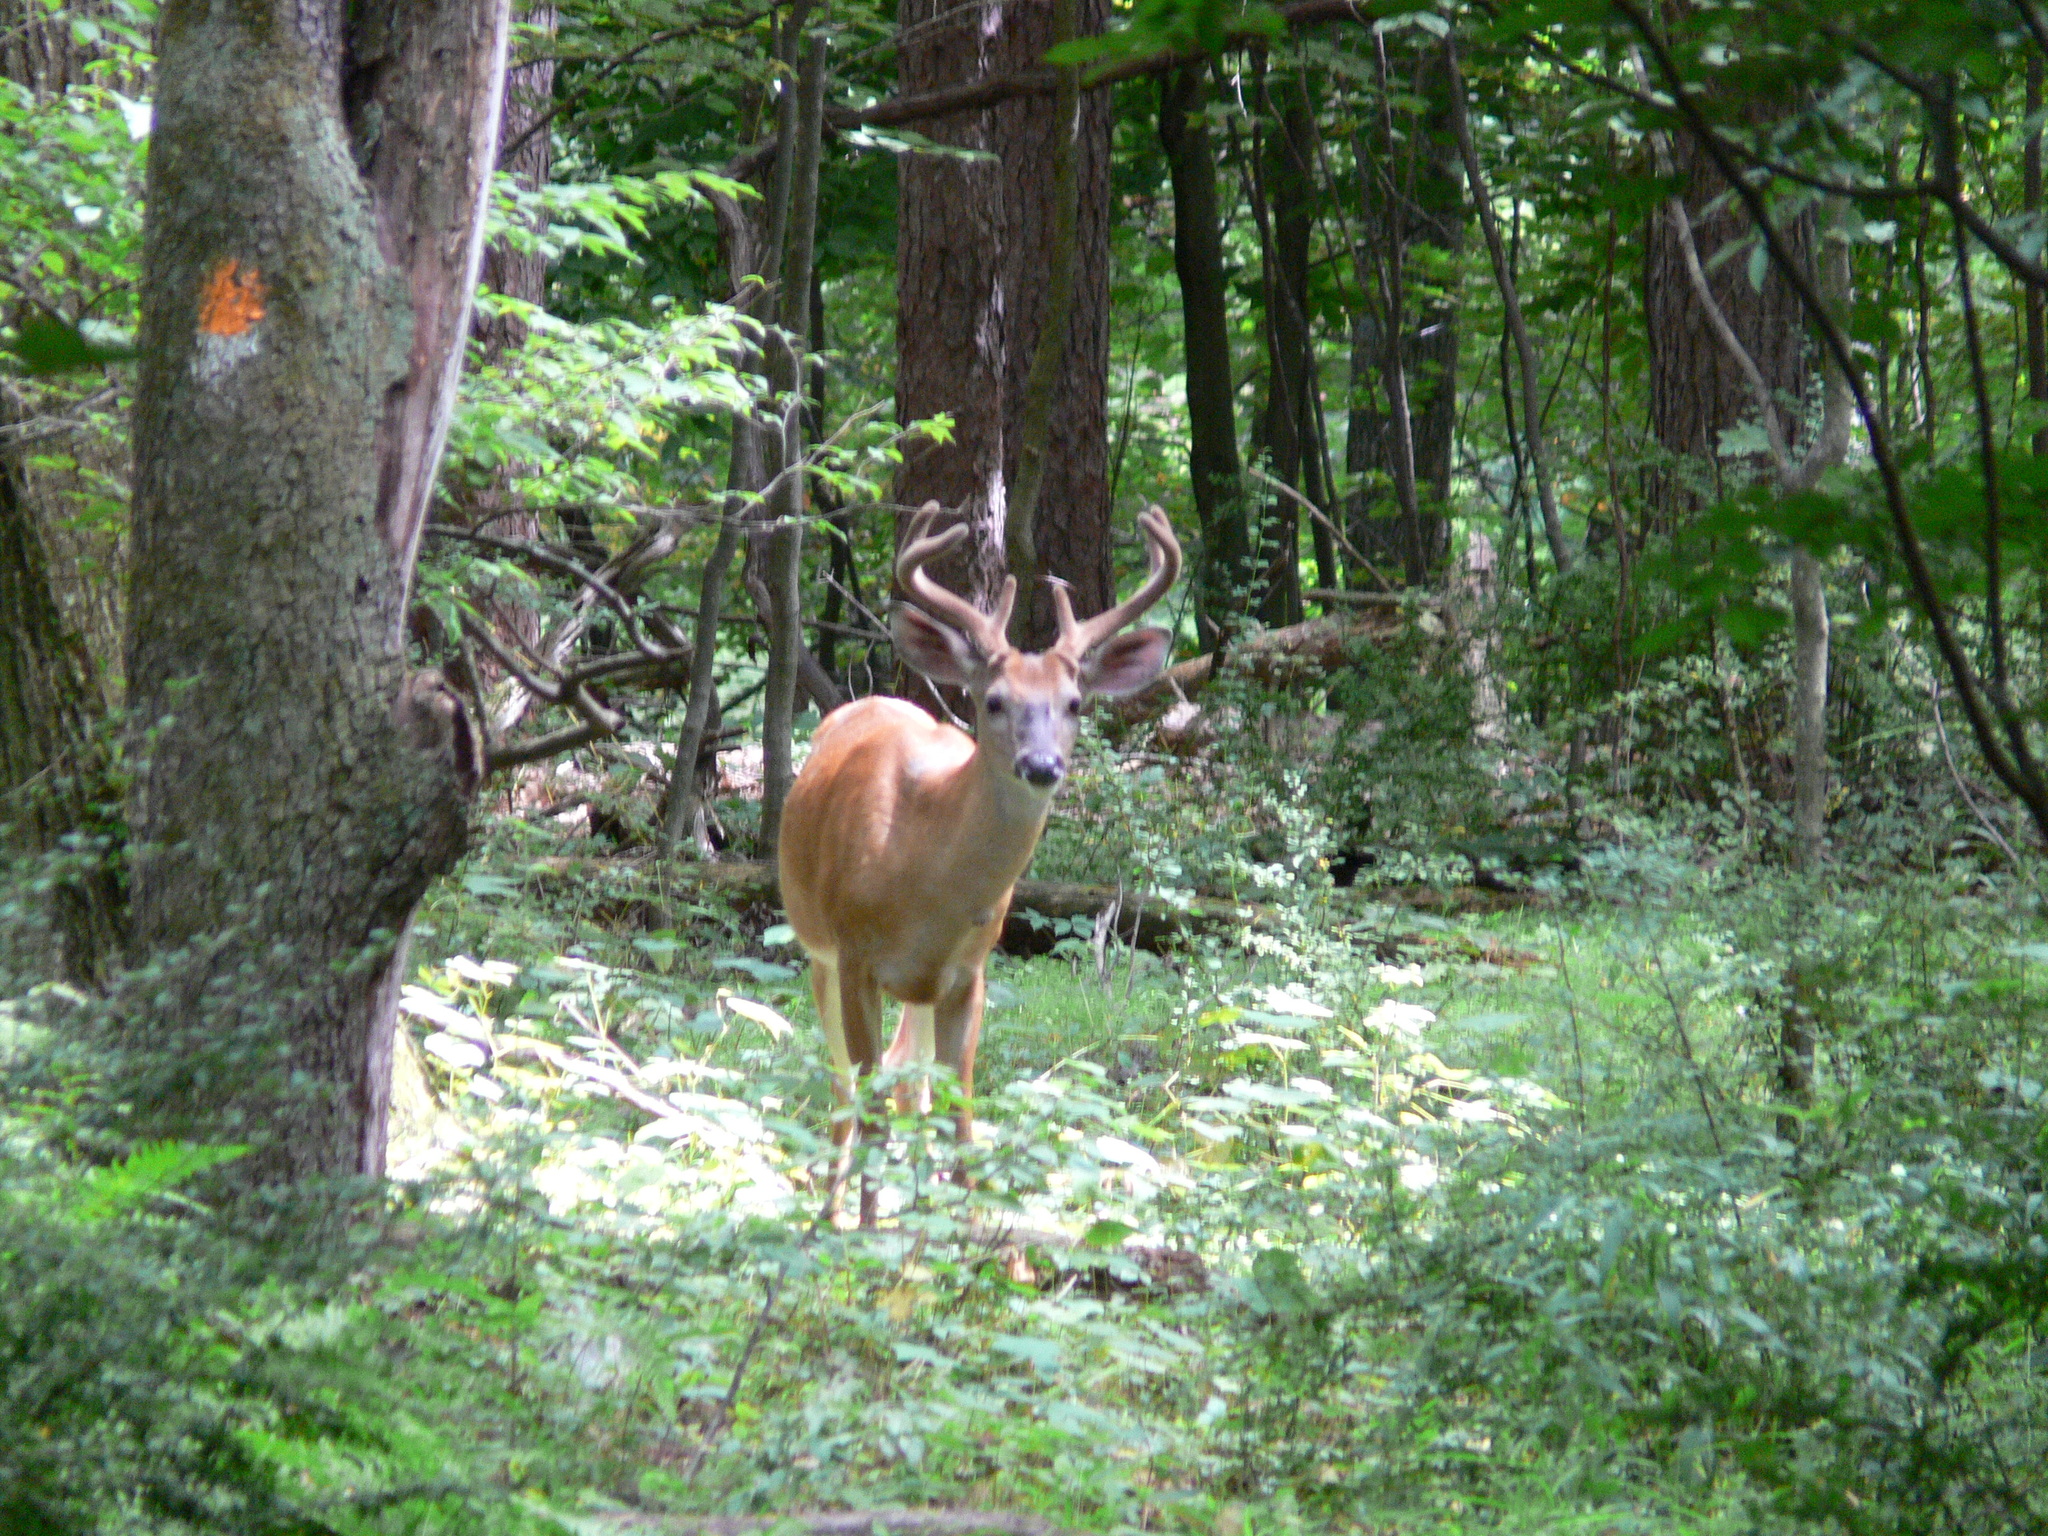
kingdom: Animalia
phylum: Chordata
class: Mammalia
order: Artiodactyla
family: Cervidae
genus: Odocoileus
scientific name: Odocoileus virginianus
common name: White-tailed deer
